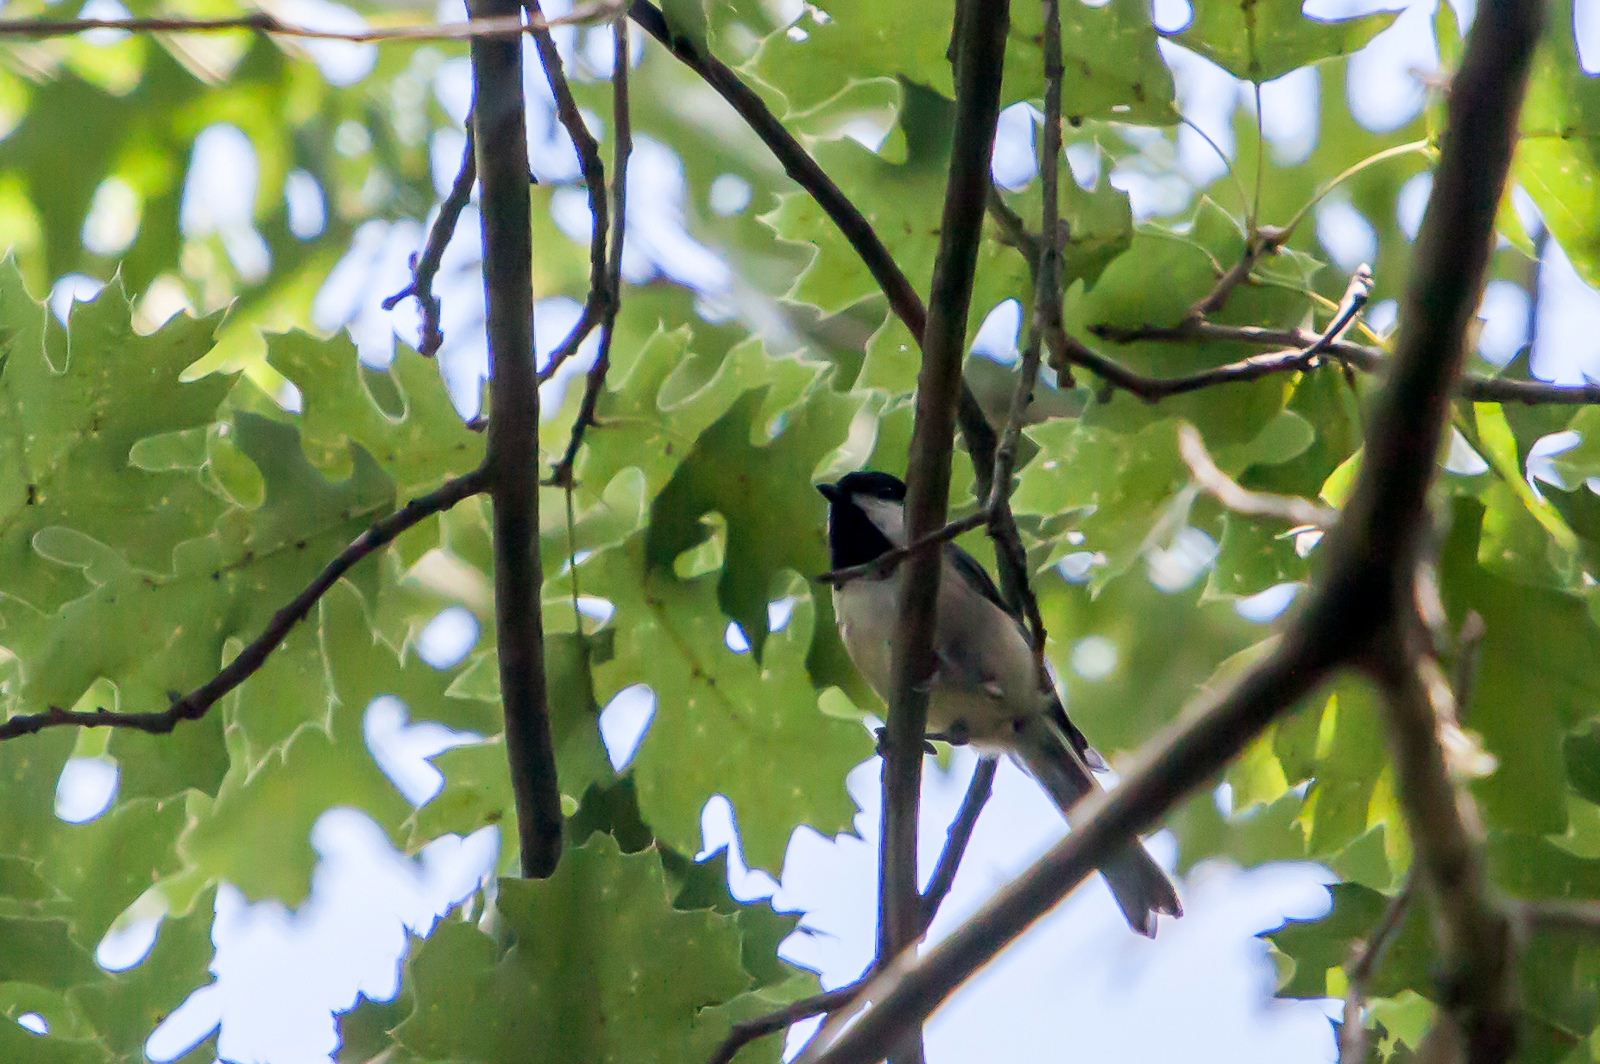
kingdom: Animalia
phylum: Chordata
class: Aves
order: Passeriformes
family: Paridae
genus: Poecile
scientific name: Poecile carolinensis
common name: Carolina chickadee
